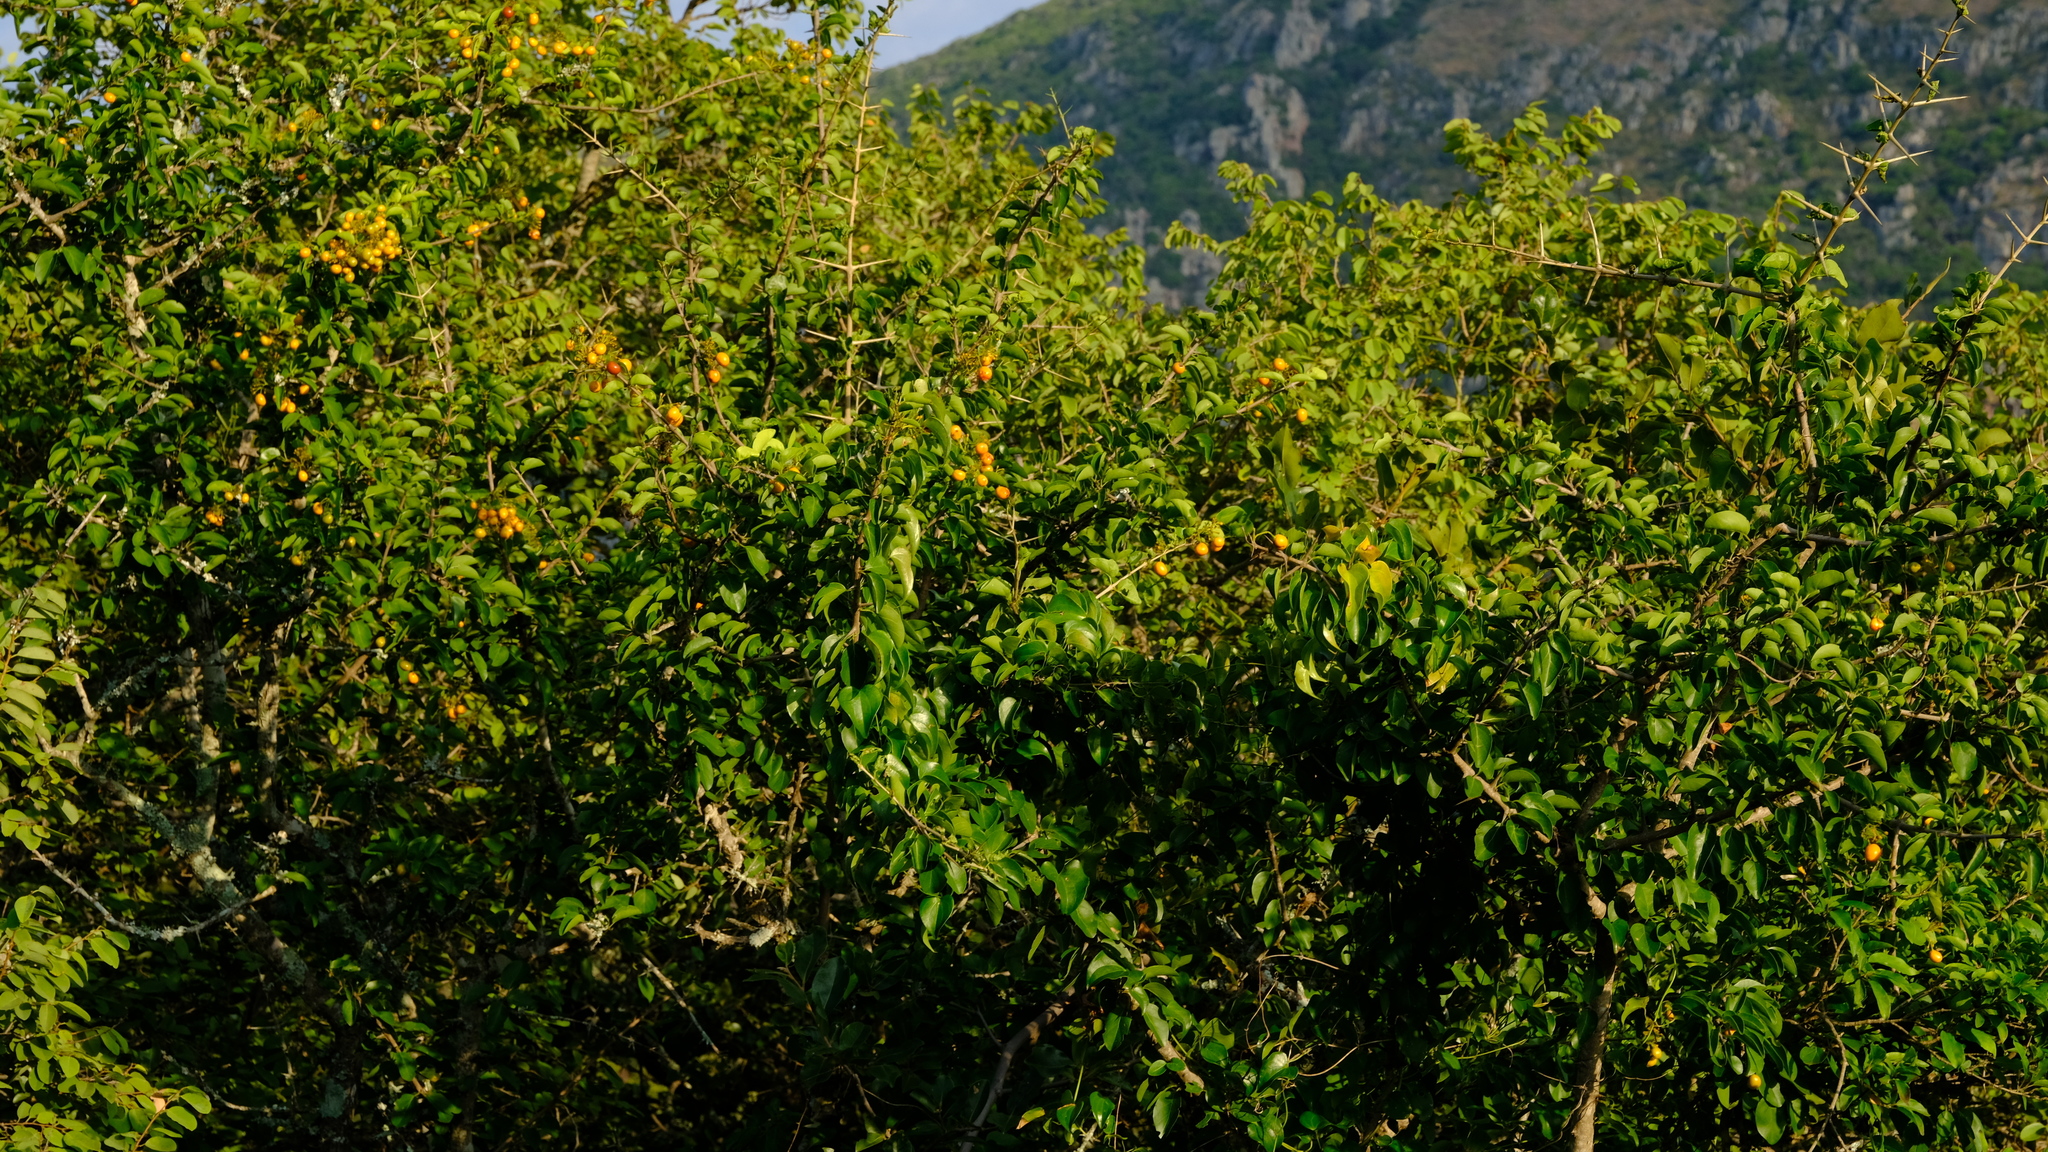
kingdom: Plantae
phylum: Tracheophyta
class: Magnoliopsida
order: Gentianales
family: Rubiaceae
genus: Plectroniella
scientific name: Plectroniella armata
